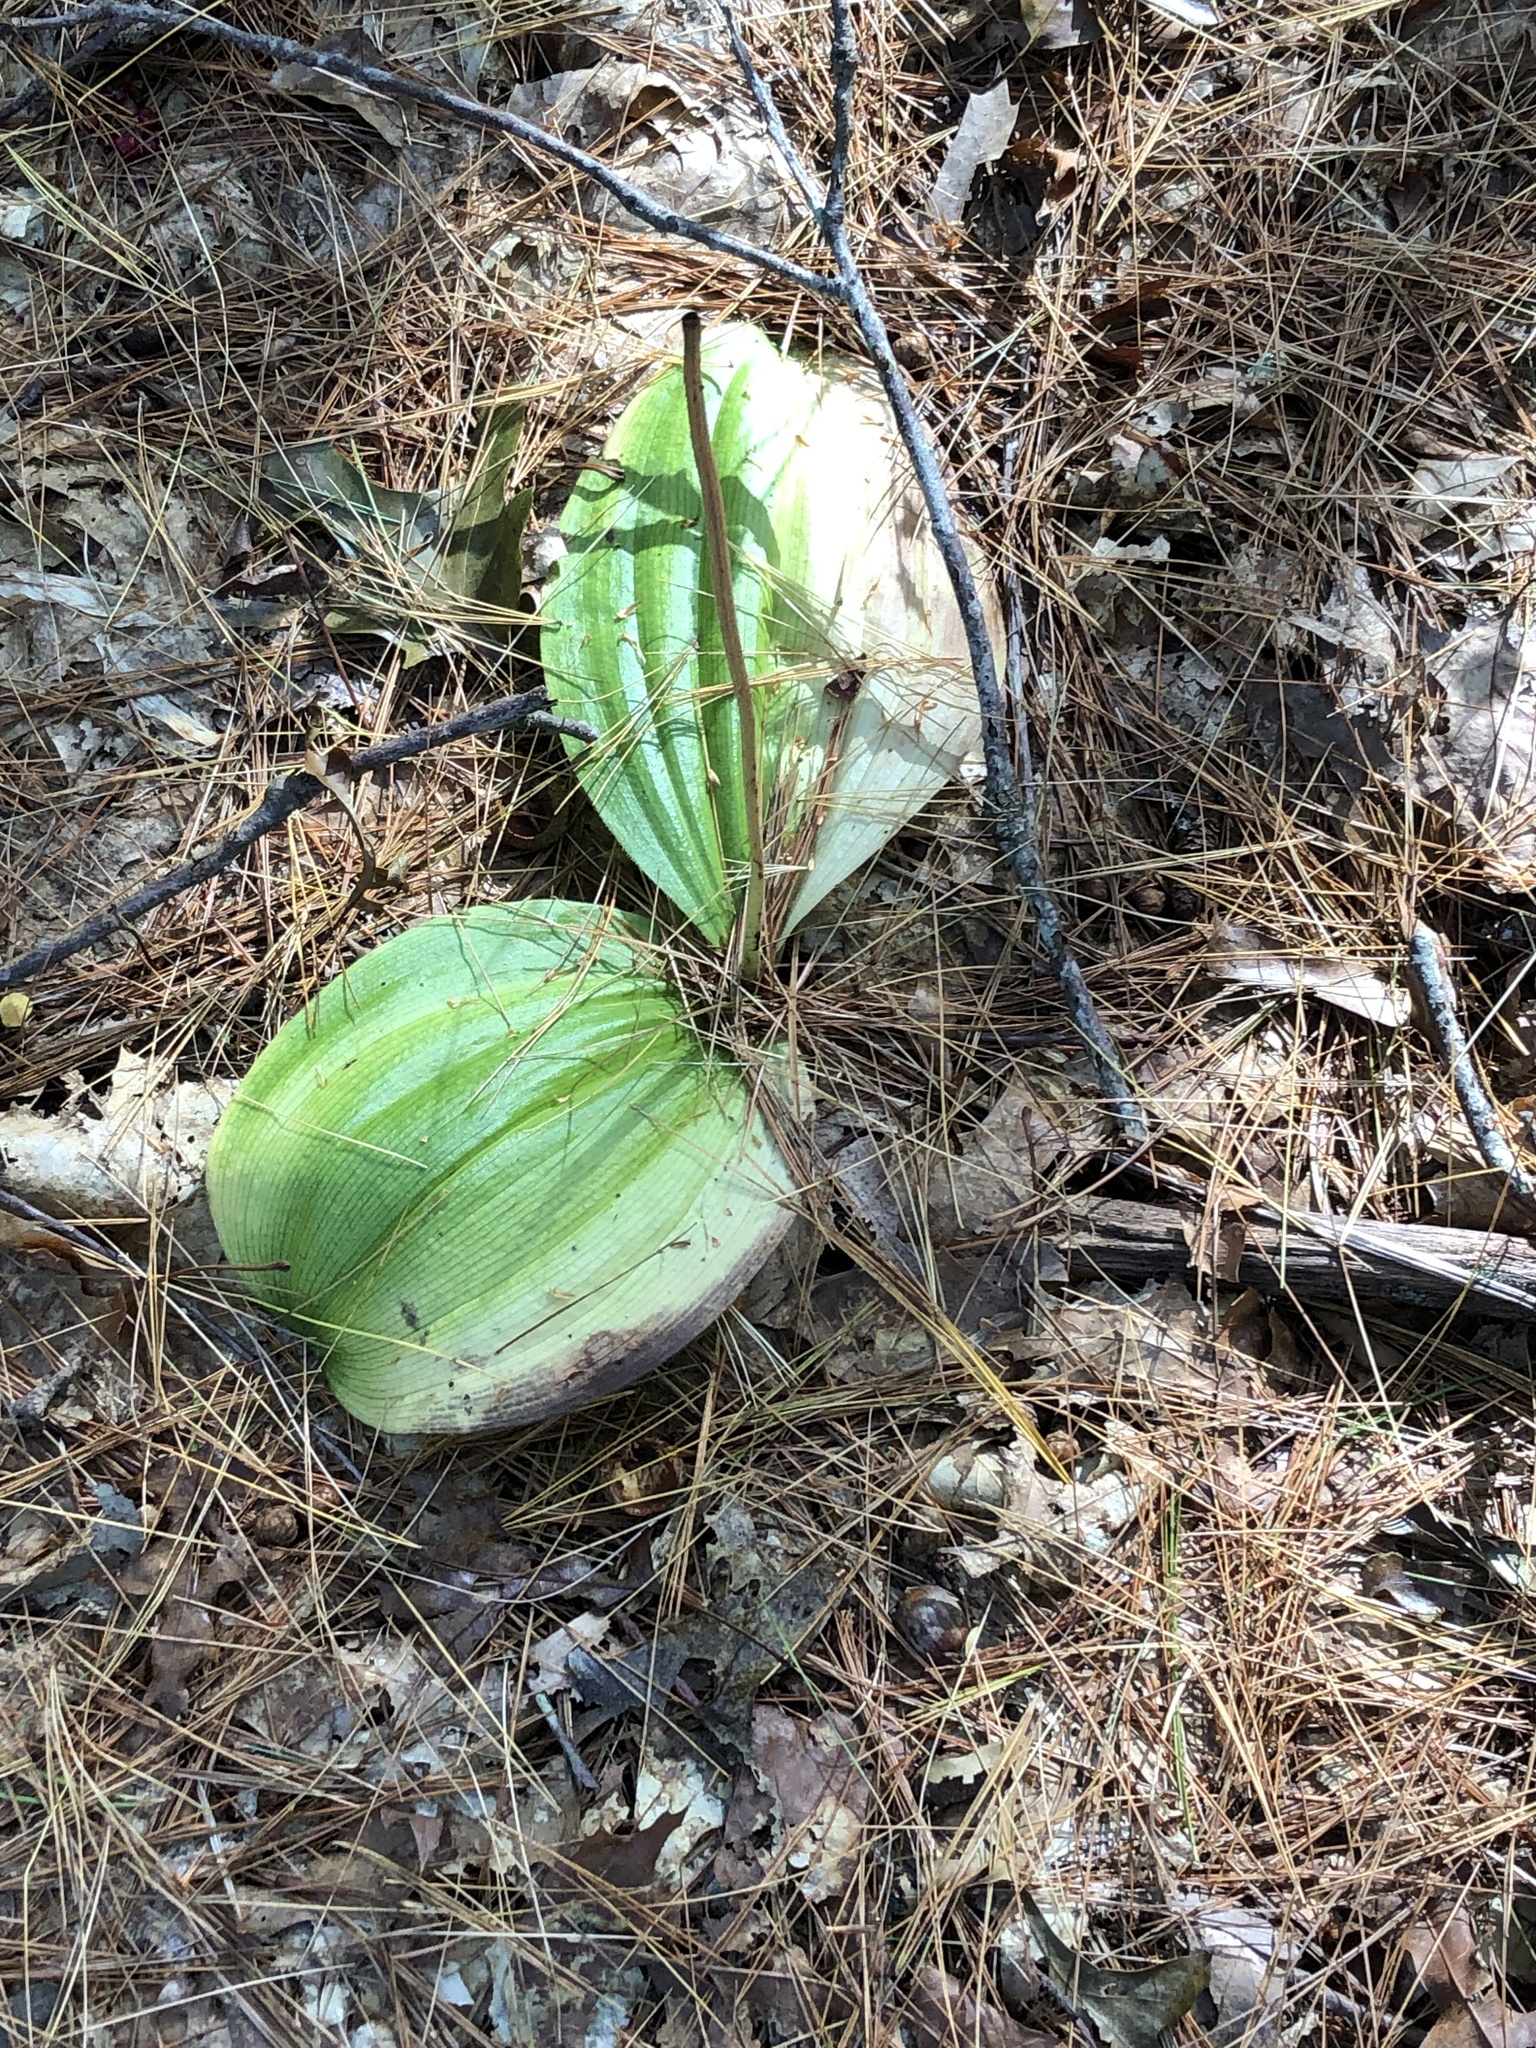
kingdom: Plantae
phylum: Tracheophyta
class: Liliopsida
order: Asparagales
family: Orchidaceae
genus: Cypripedium
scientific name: Cypripedium acaule
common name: Pink lady's-slipper
